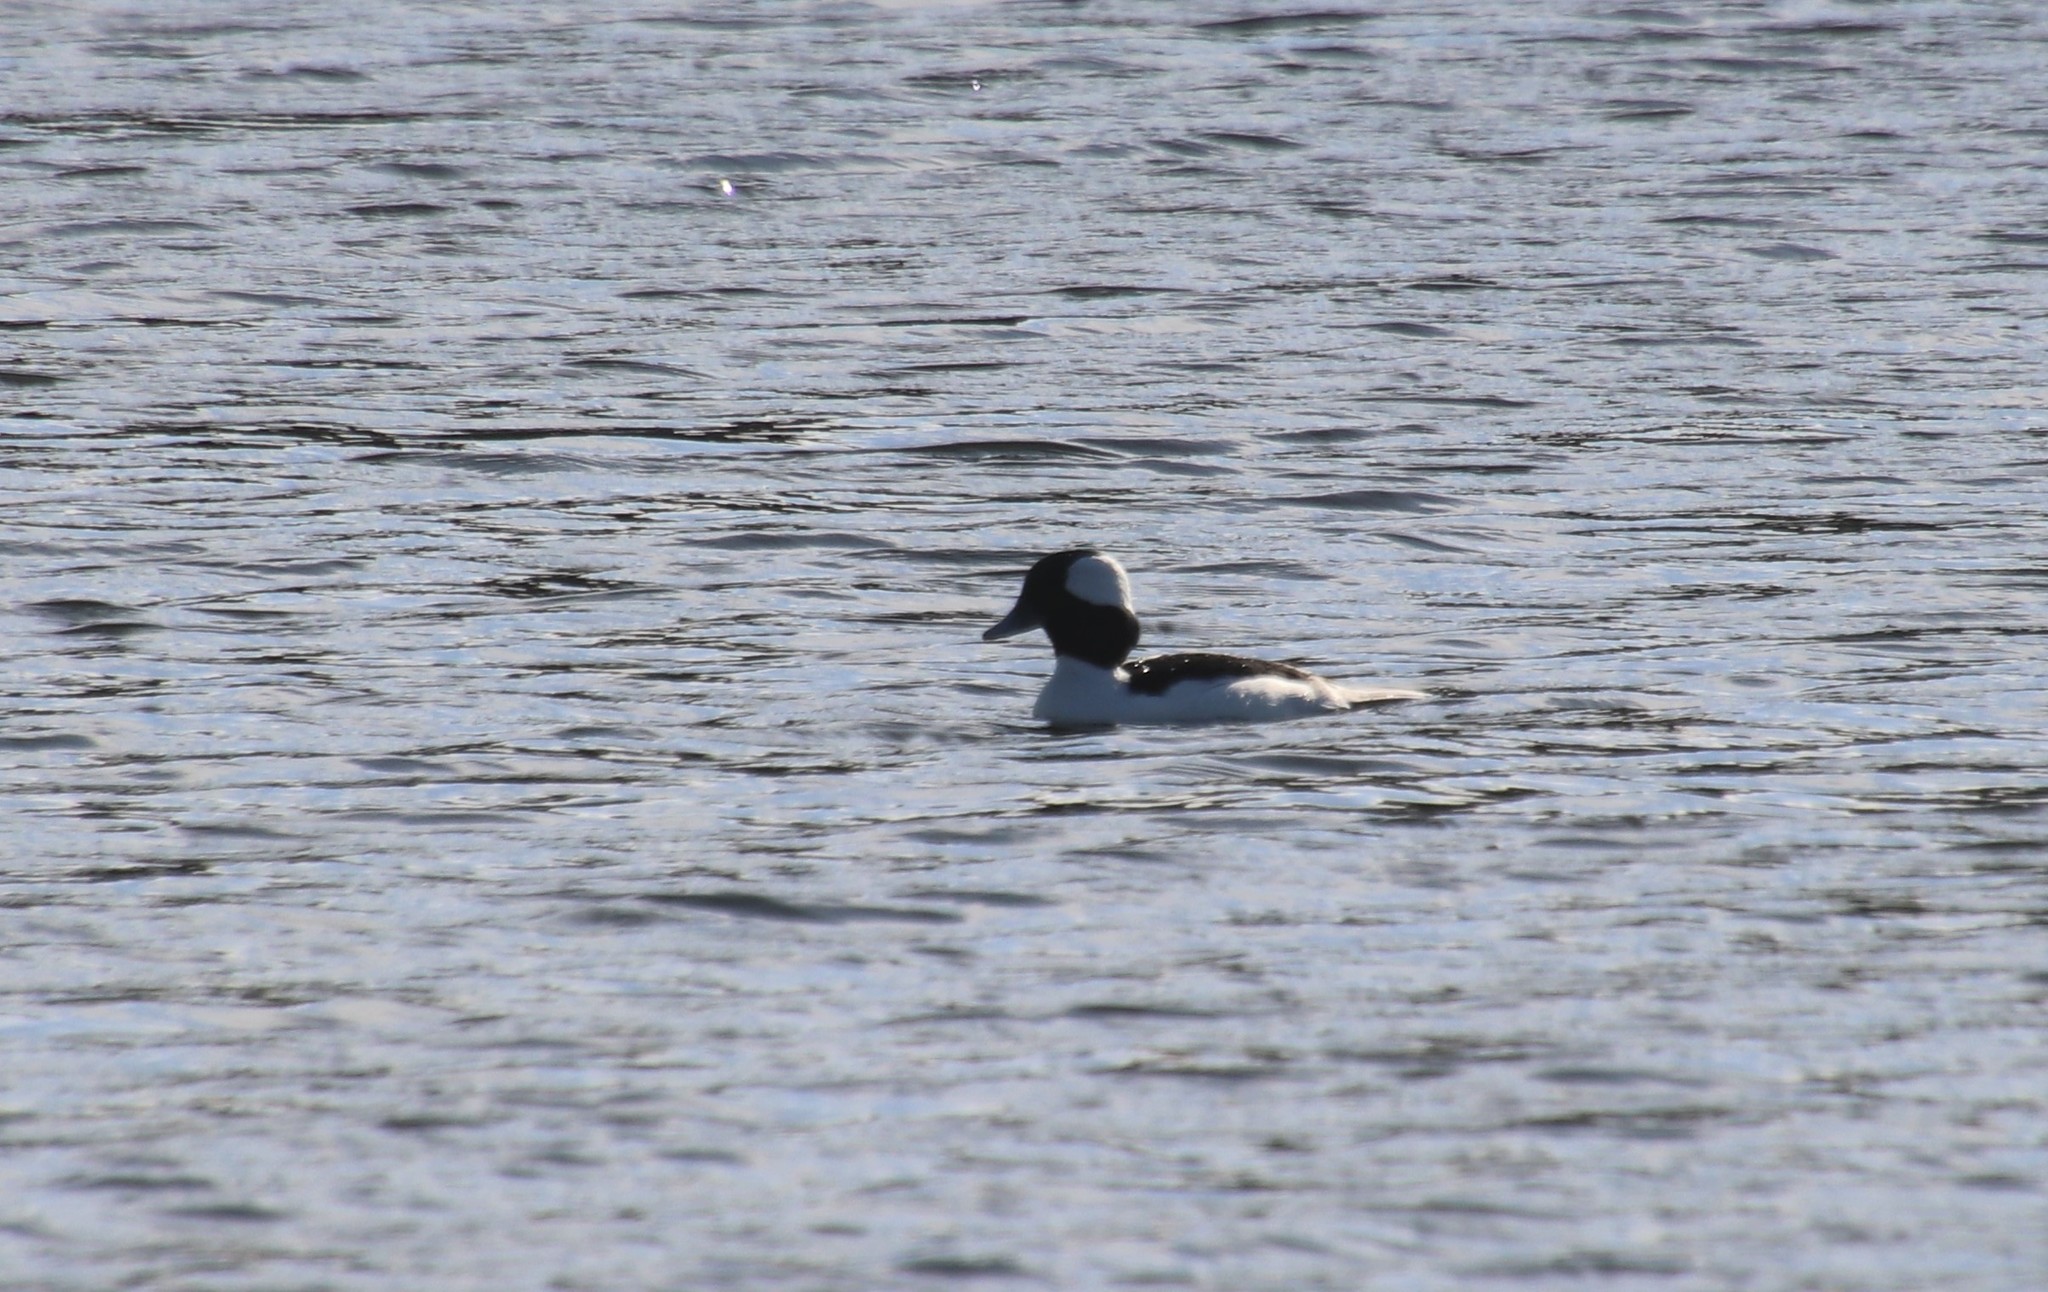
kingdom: Animalia
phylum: Chordata
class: Aves
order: Anseriformes
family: Anatidae
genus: Bucephala
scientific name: Bucephala albeola
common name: Bufflehead
